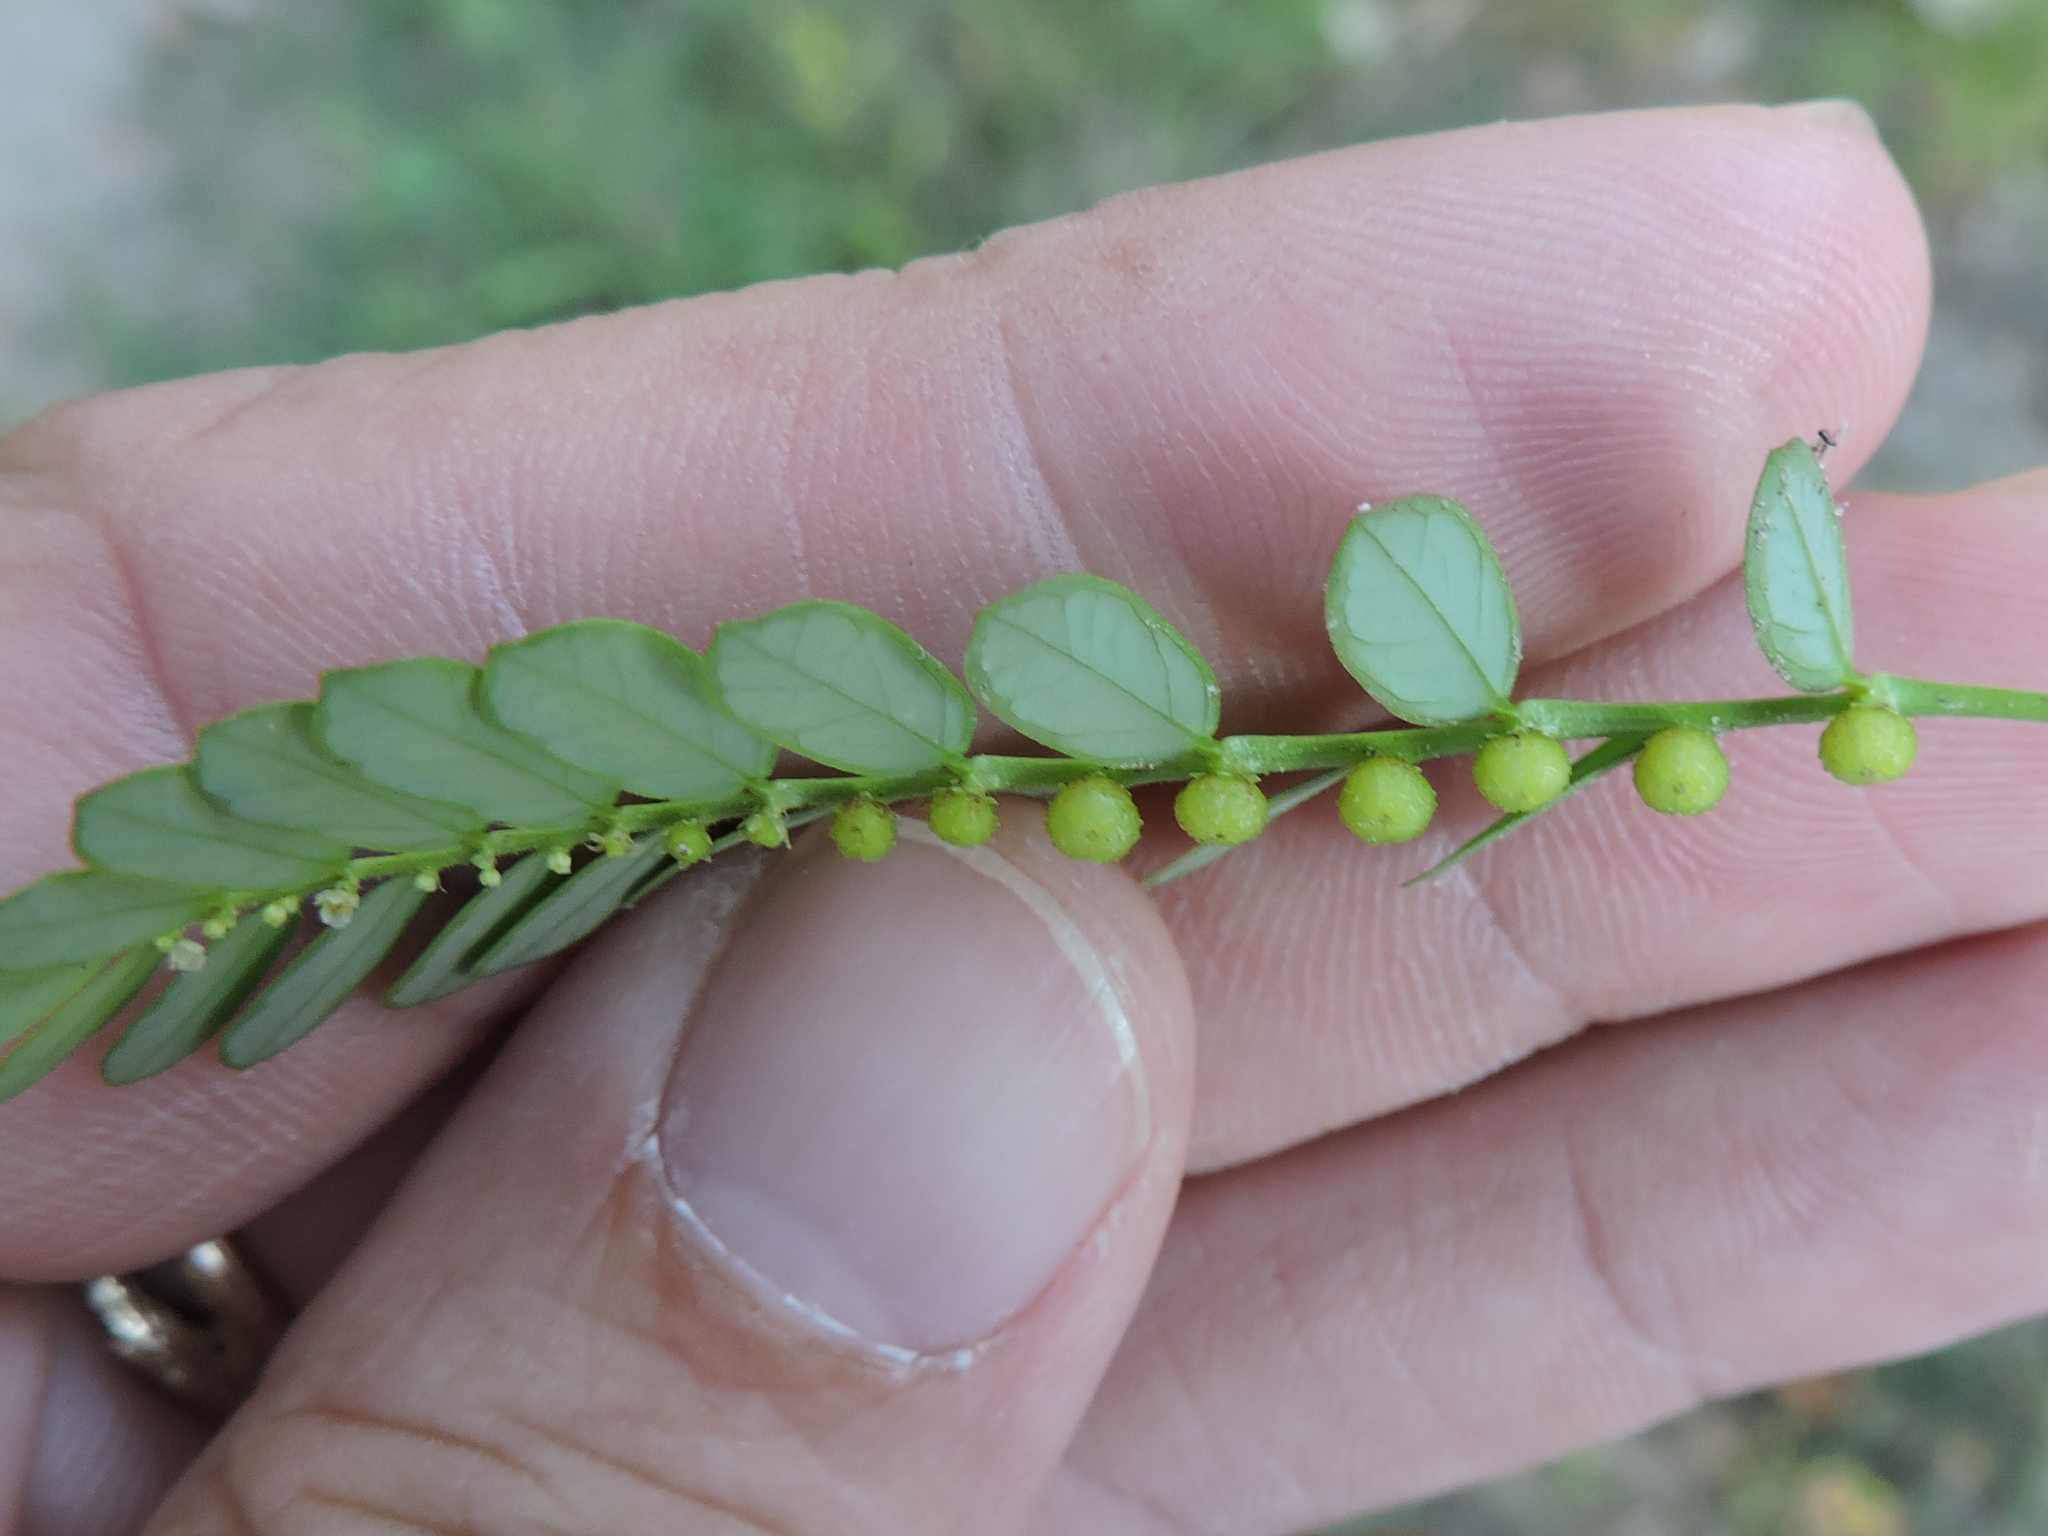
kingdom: Plantae
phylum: Tracheophyta
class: Magnoliopsida
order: Malpighiales
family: Phyllanthaceae
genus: Phyllanthus
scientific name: Phyllanthus urinaria
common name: Chamber bitter
